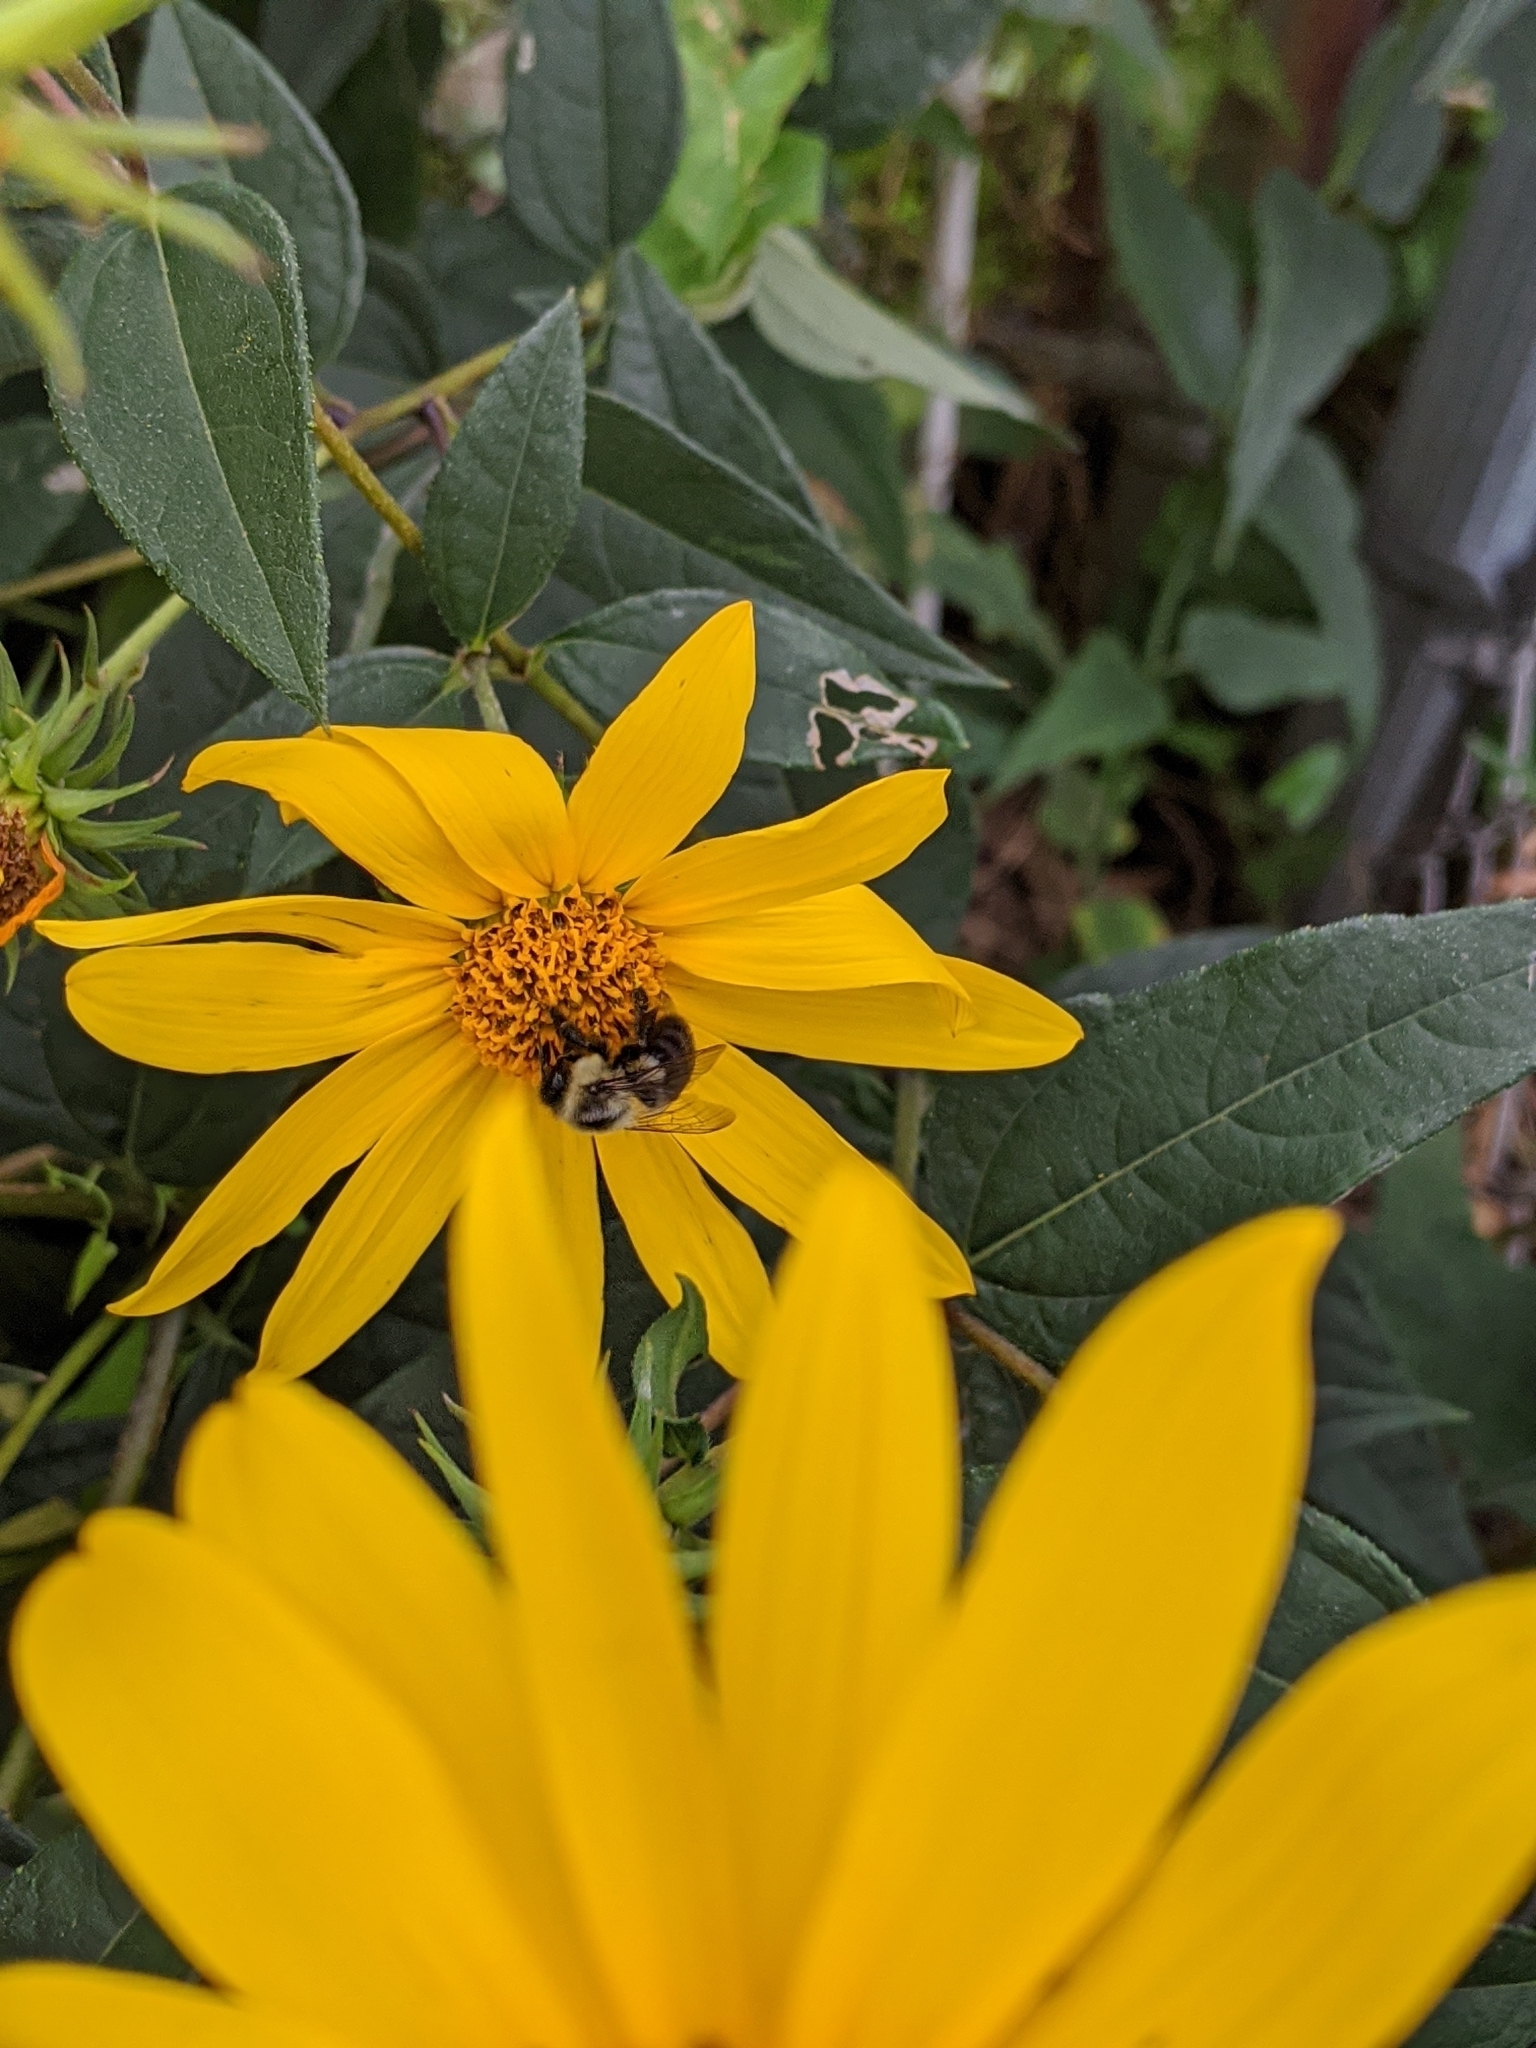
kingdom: Animalia
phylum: Arthropoda
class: Insecta
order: Hymenoptera
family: Apidae
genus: Bombus
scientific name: Bombus impatiens
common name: Common eastern bumble bee
